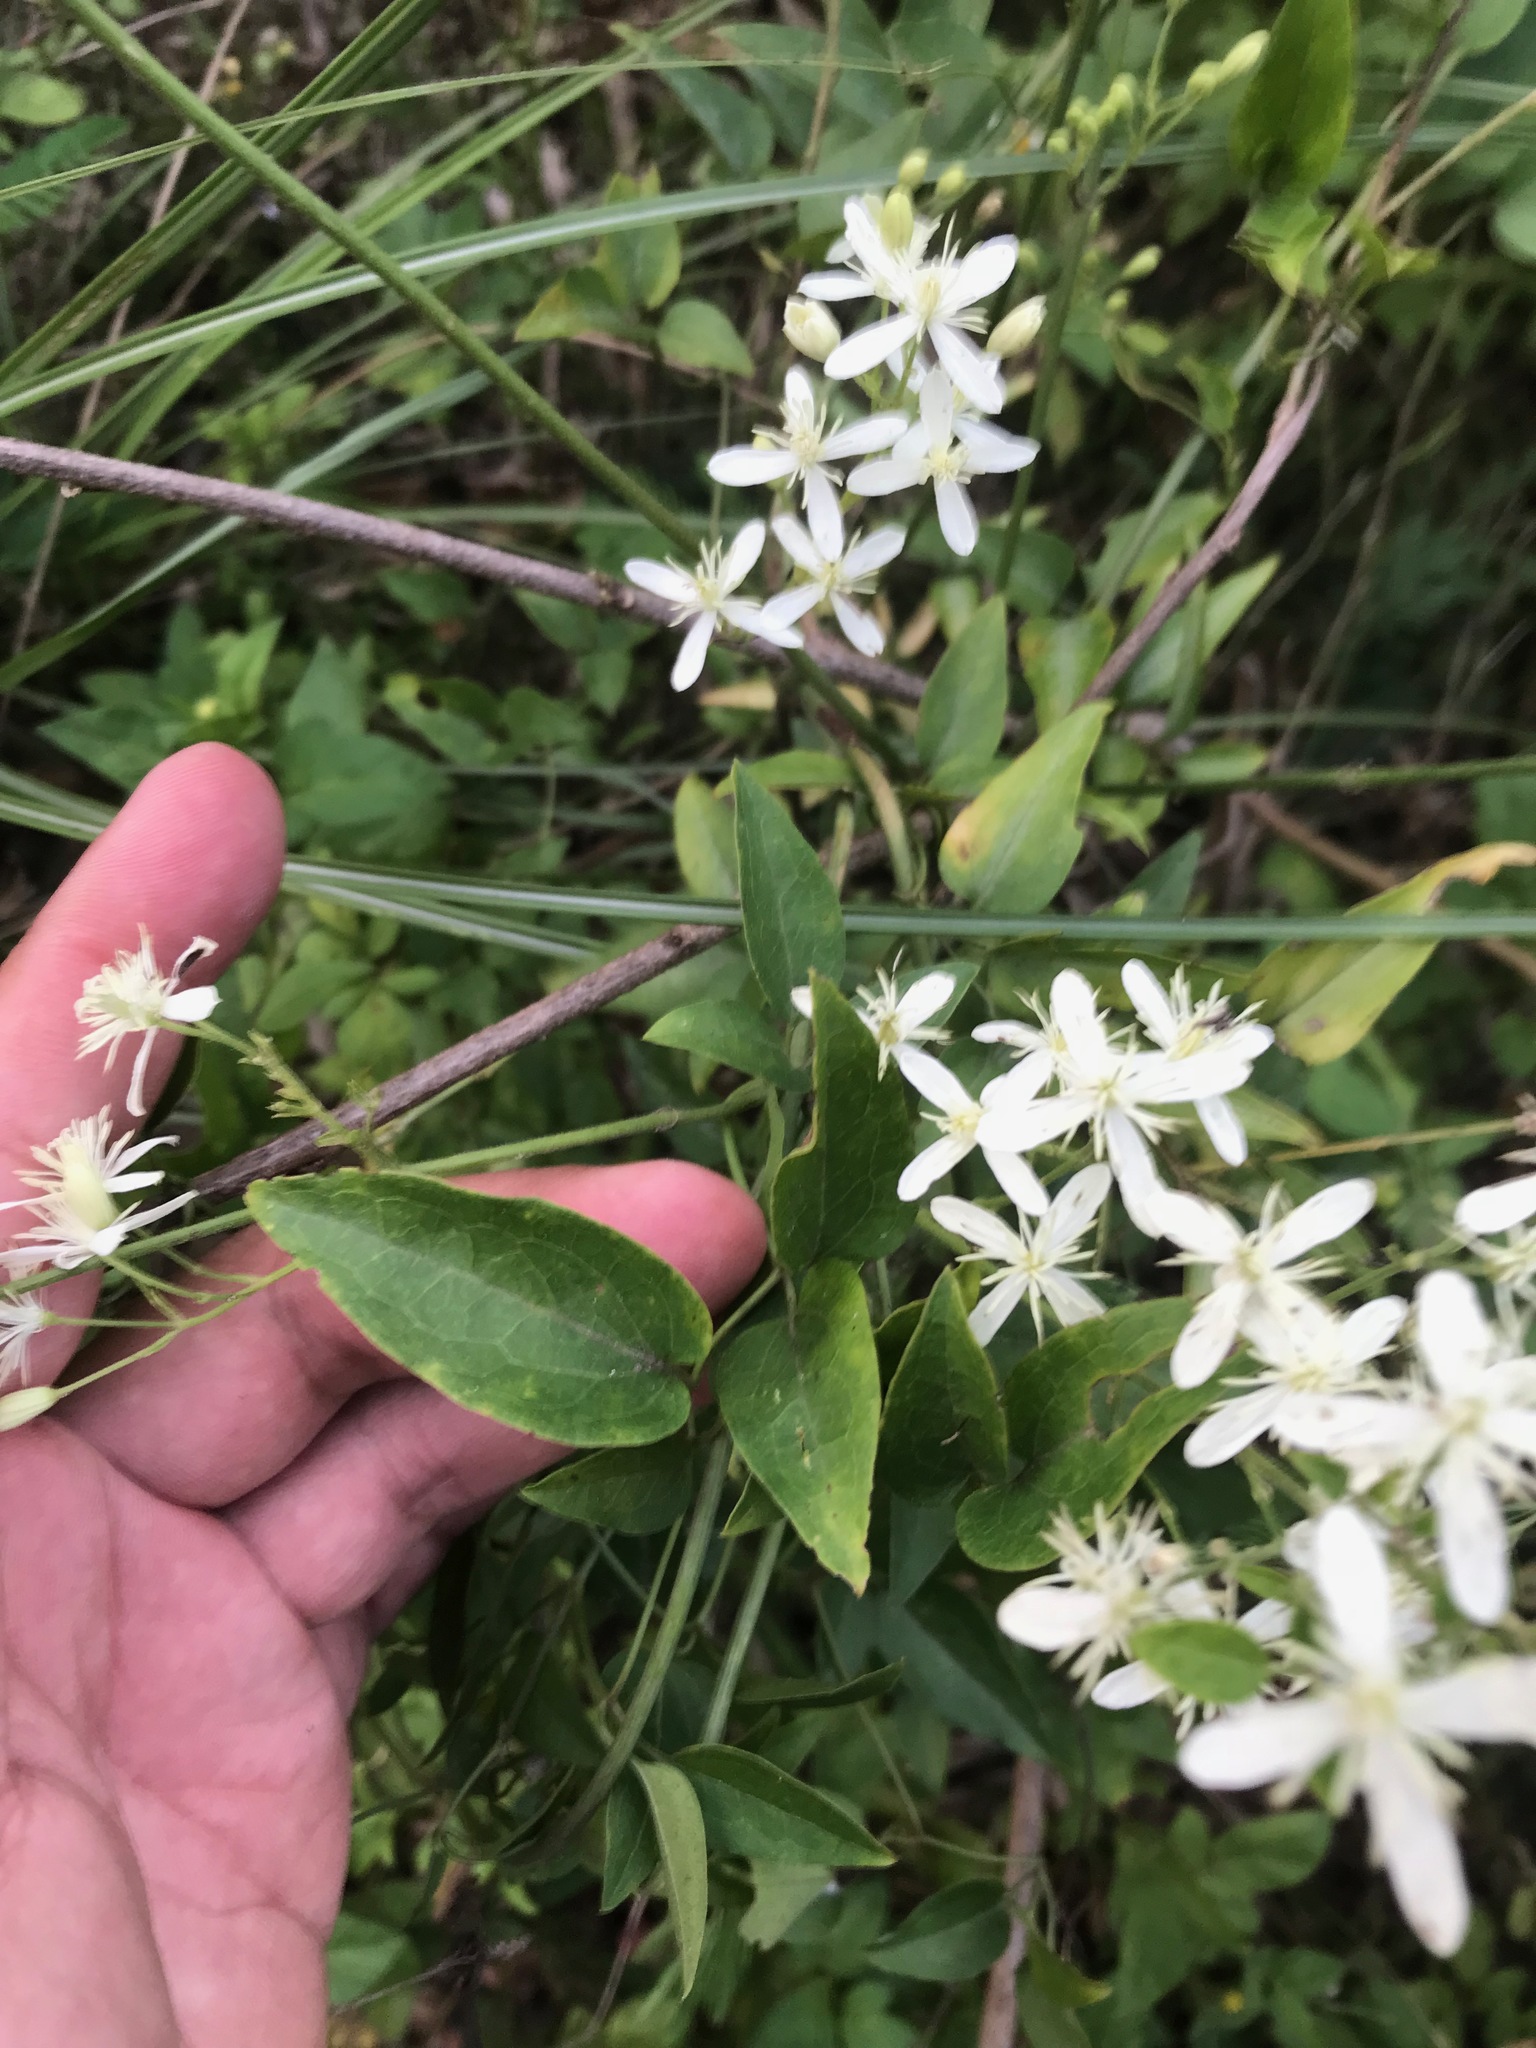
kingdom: Plantae
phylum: Tracheophyta
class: Magnoliopsida
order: Ranunculales
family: Ranunculaceae
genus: Clematis
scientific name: Clematis chinensis
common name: Chinese clematis
